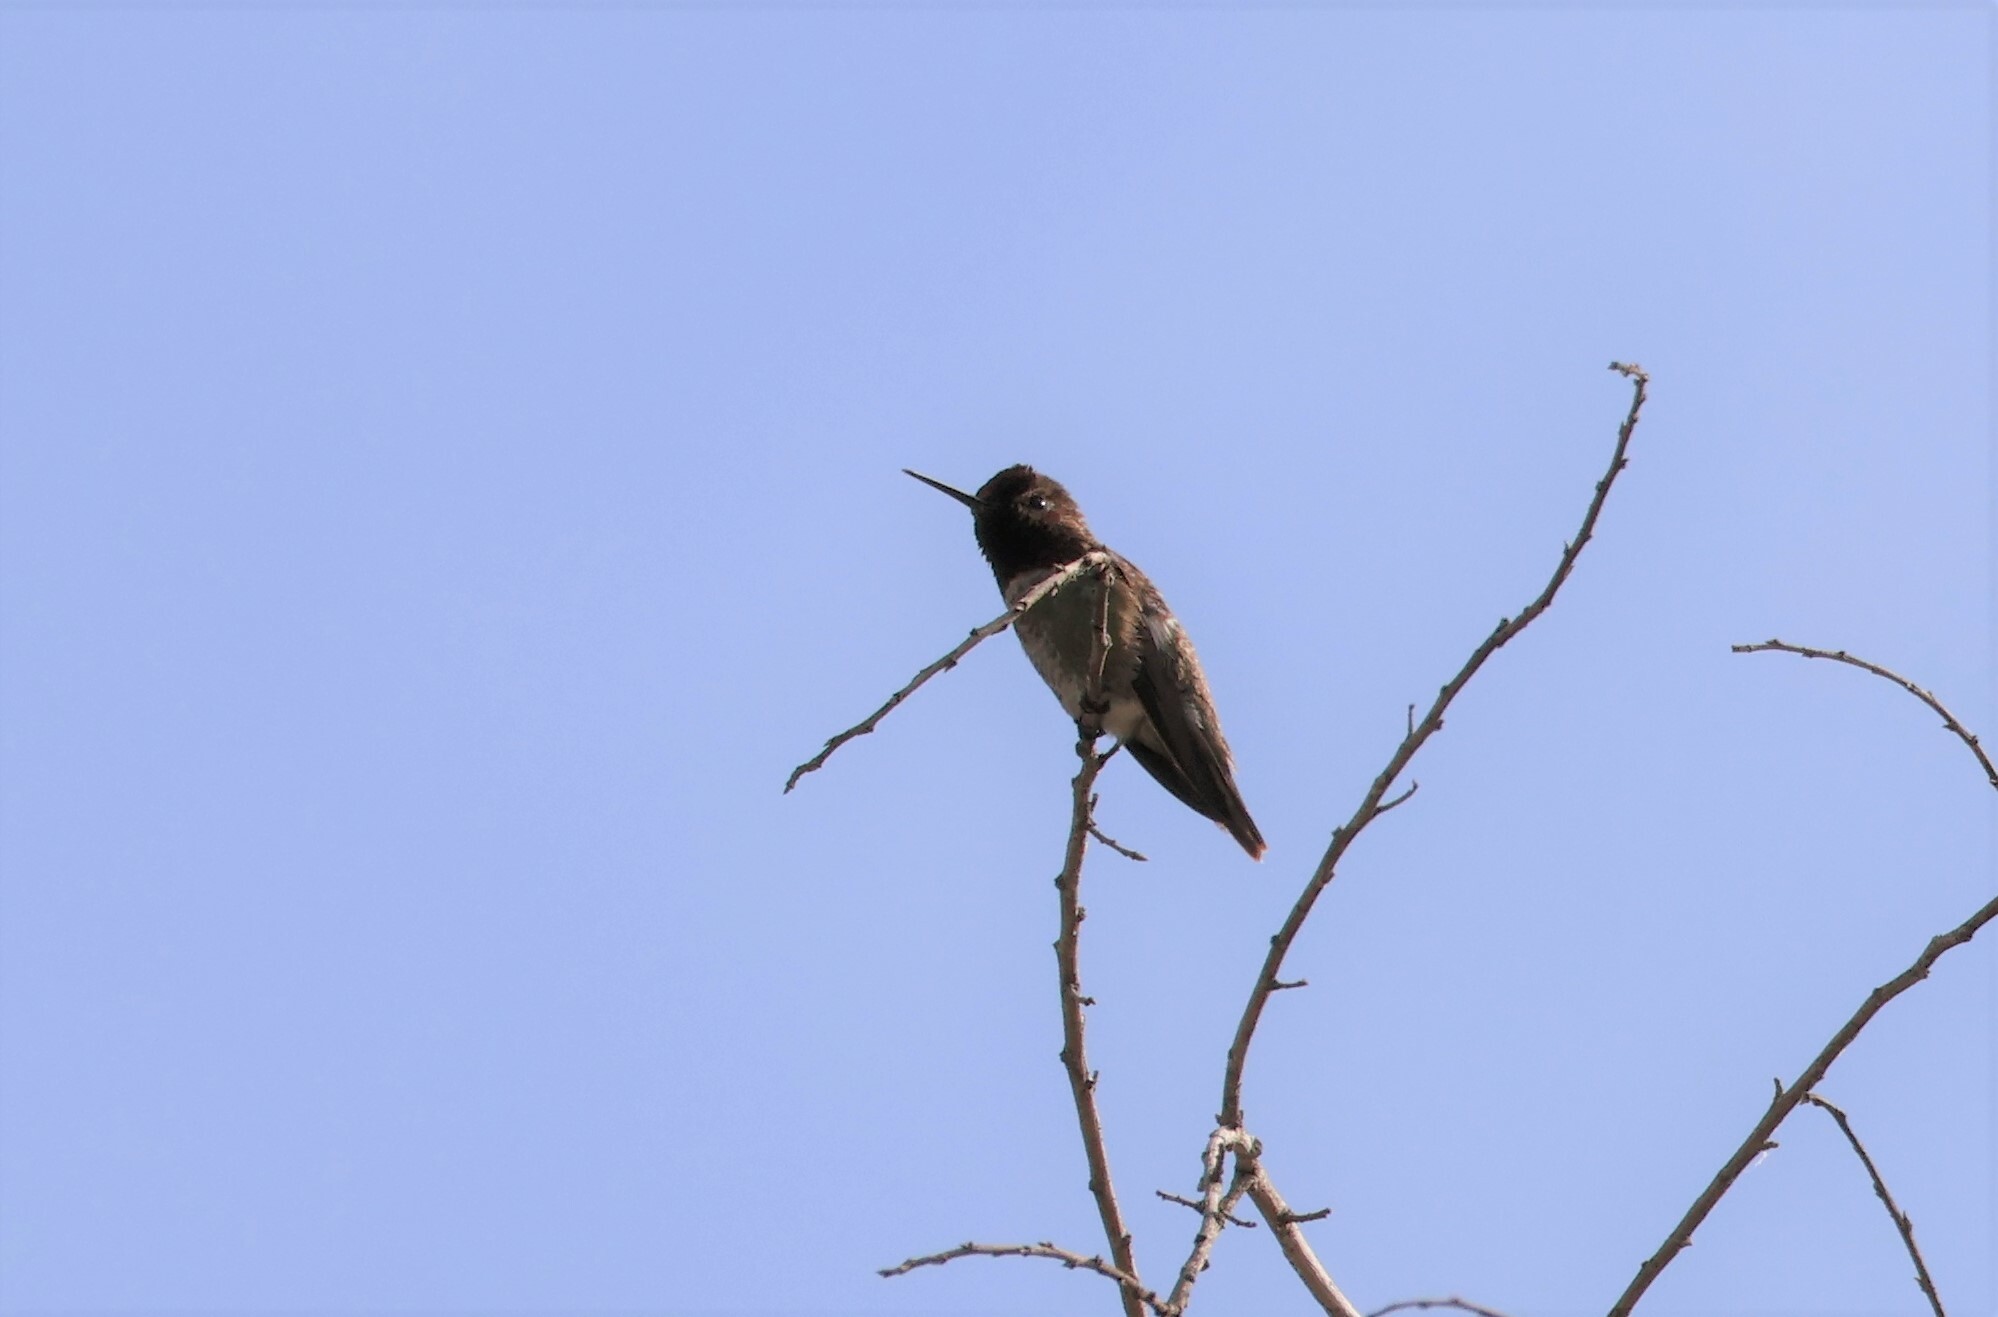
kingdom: Animalia
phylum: Chordata
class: Aves
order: Apodiformes
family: Trochilidae
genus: Calypte
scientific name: Calypte anna
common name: Anna's hummingbird
